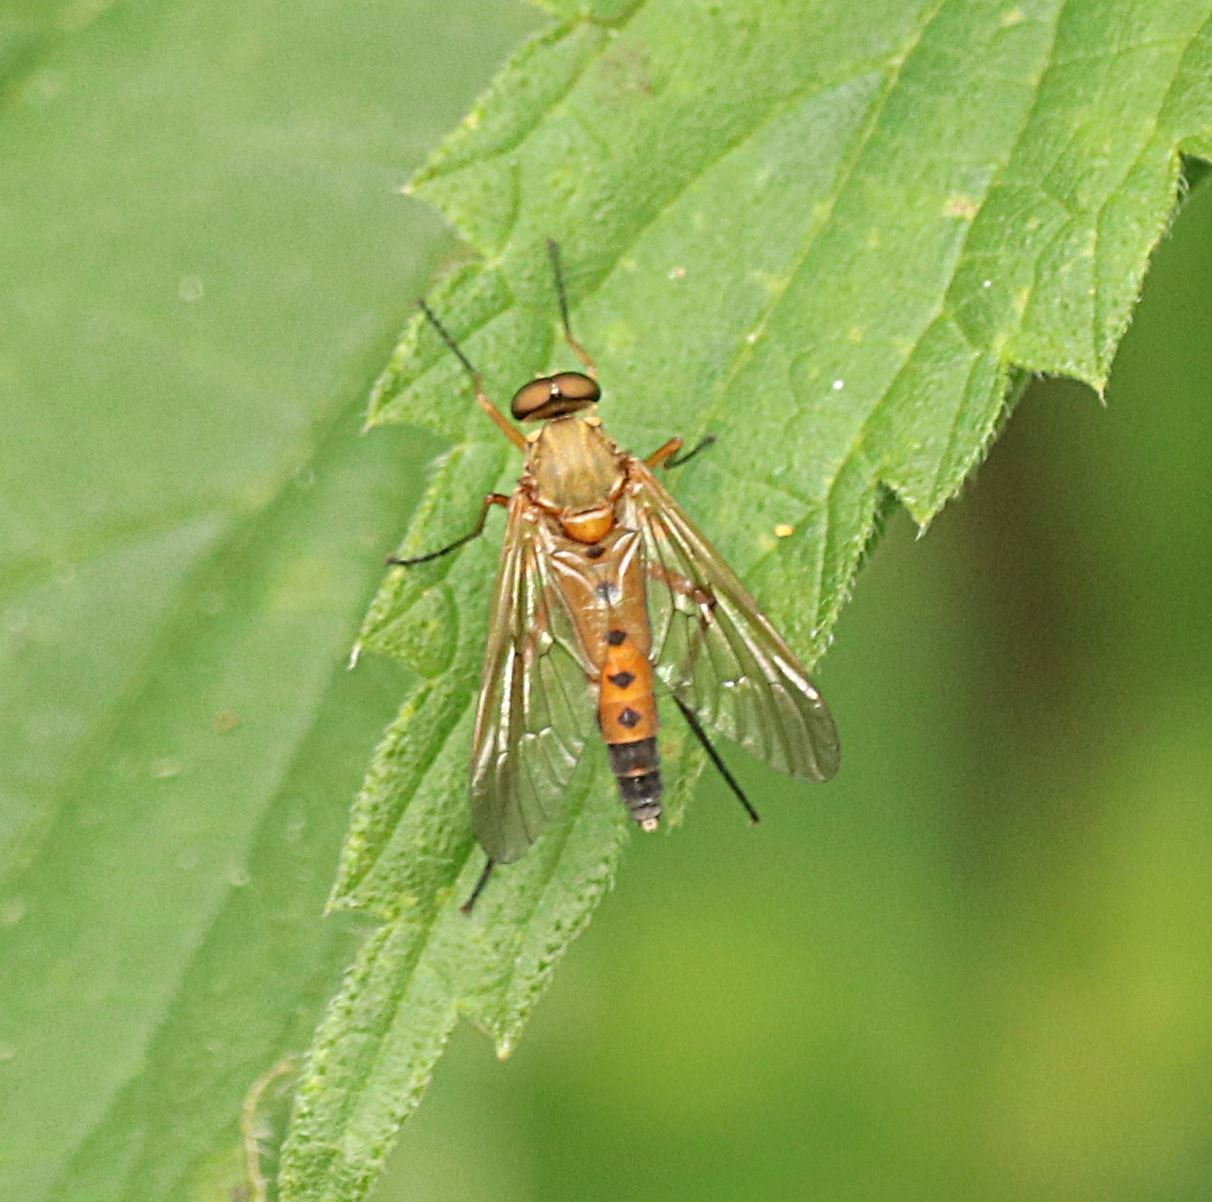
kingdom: Animalia
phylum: Arthropoda
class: Insecta
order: Diptera
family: Rhagionidae
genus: Rhagio
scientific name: Rhagio tringaria
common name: Marsh snipefly
